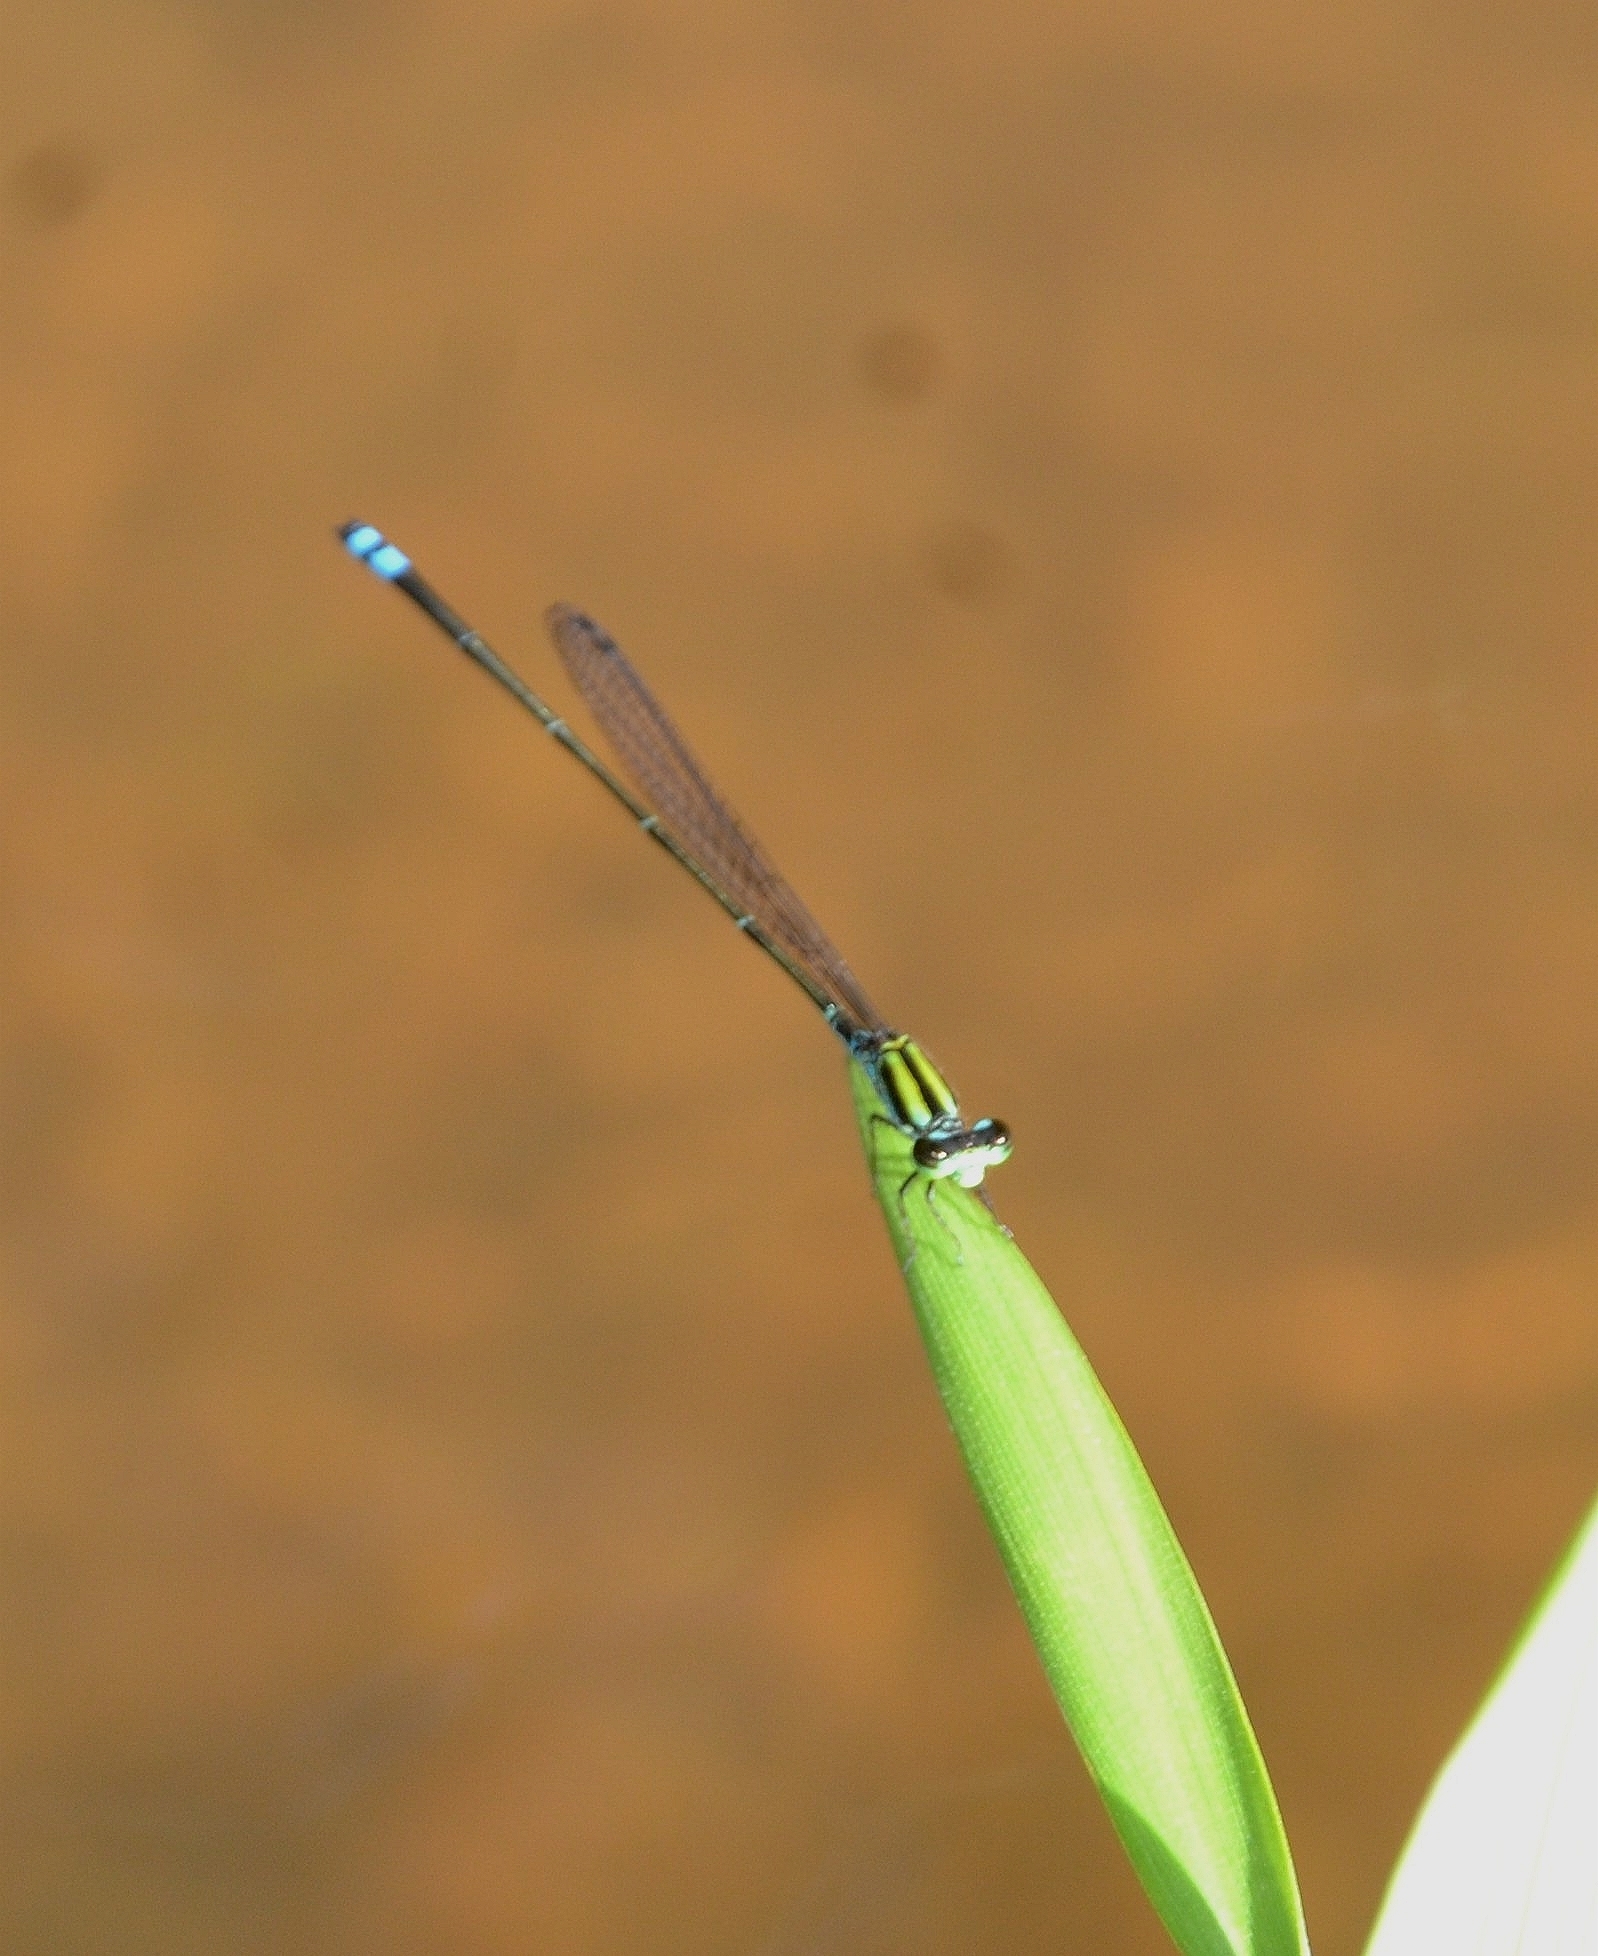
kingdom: Animalia
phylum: Arthropoda
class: Insecta
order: Odonata
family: Coenagrionidae
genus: Pseudagrion
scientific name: Pseudagrion indicum
